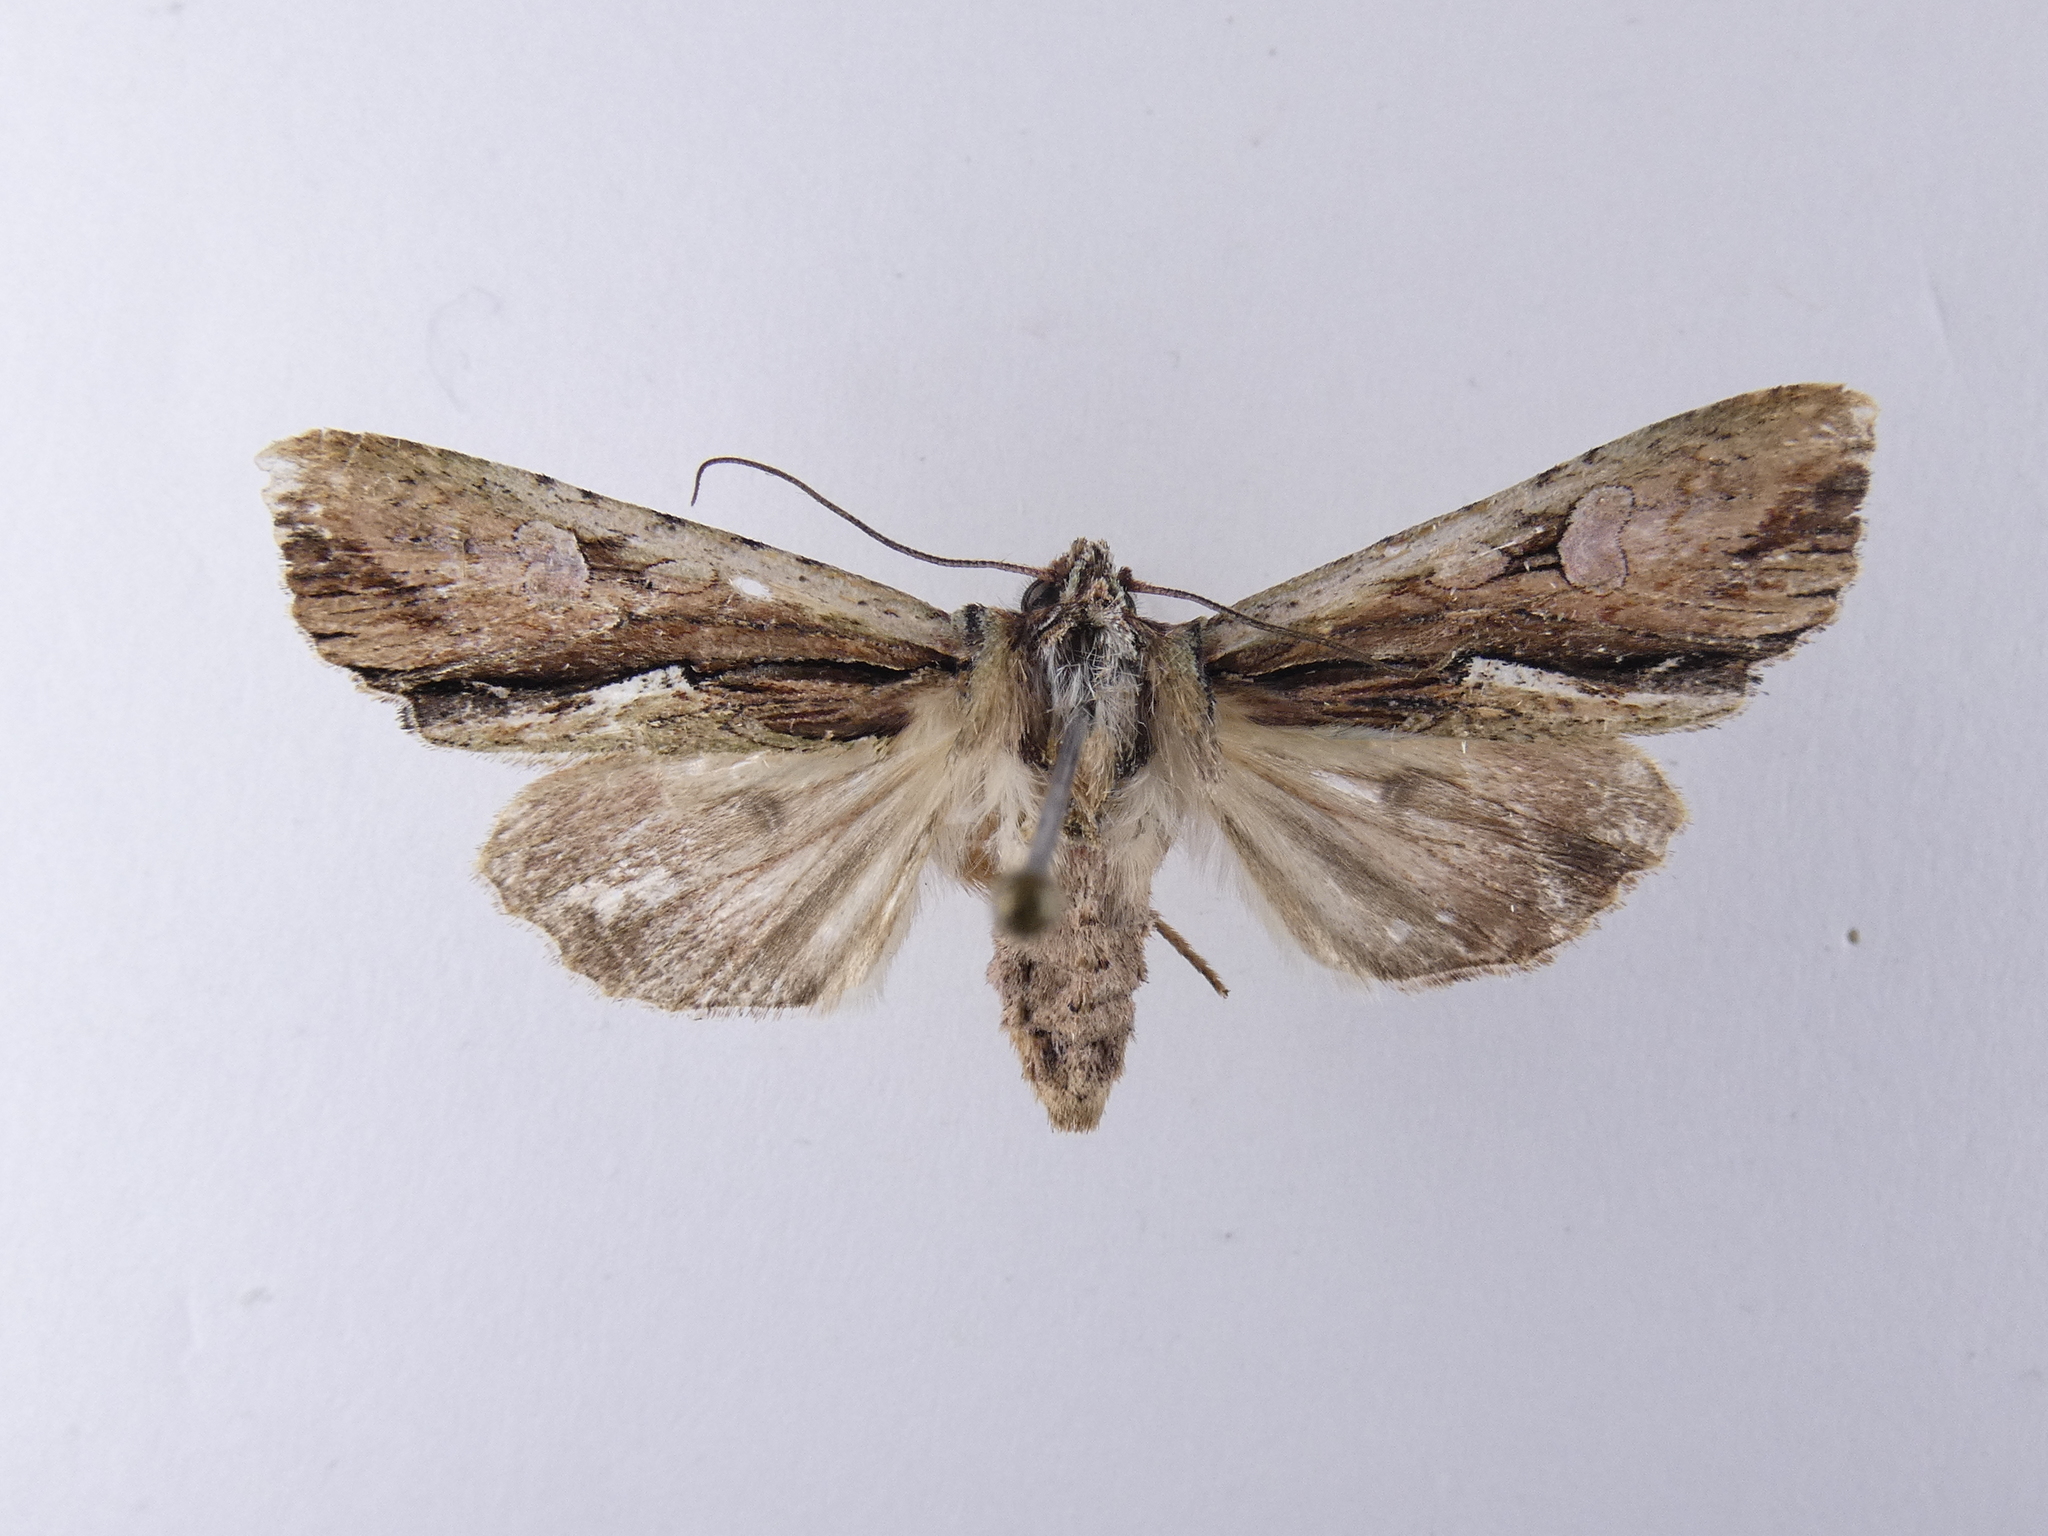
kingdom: Animalia
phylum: Arthropoda
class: Insecta
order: Lepidoptera
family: Noctuidae
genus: Meterana
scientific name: Meterana decorata
